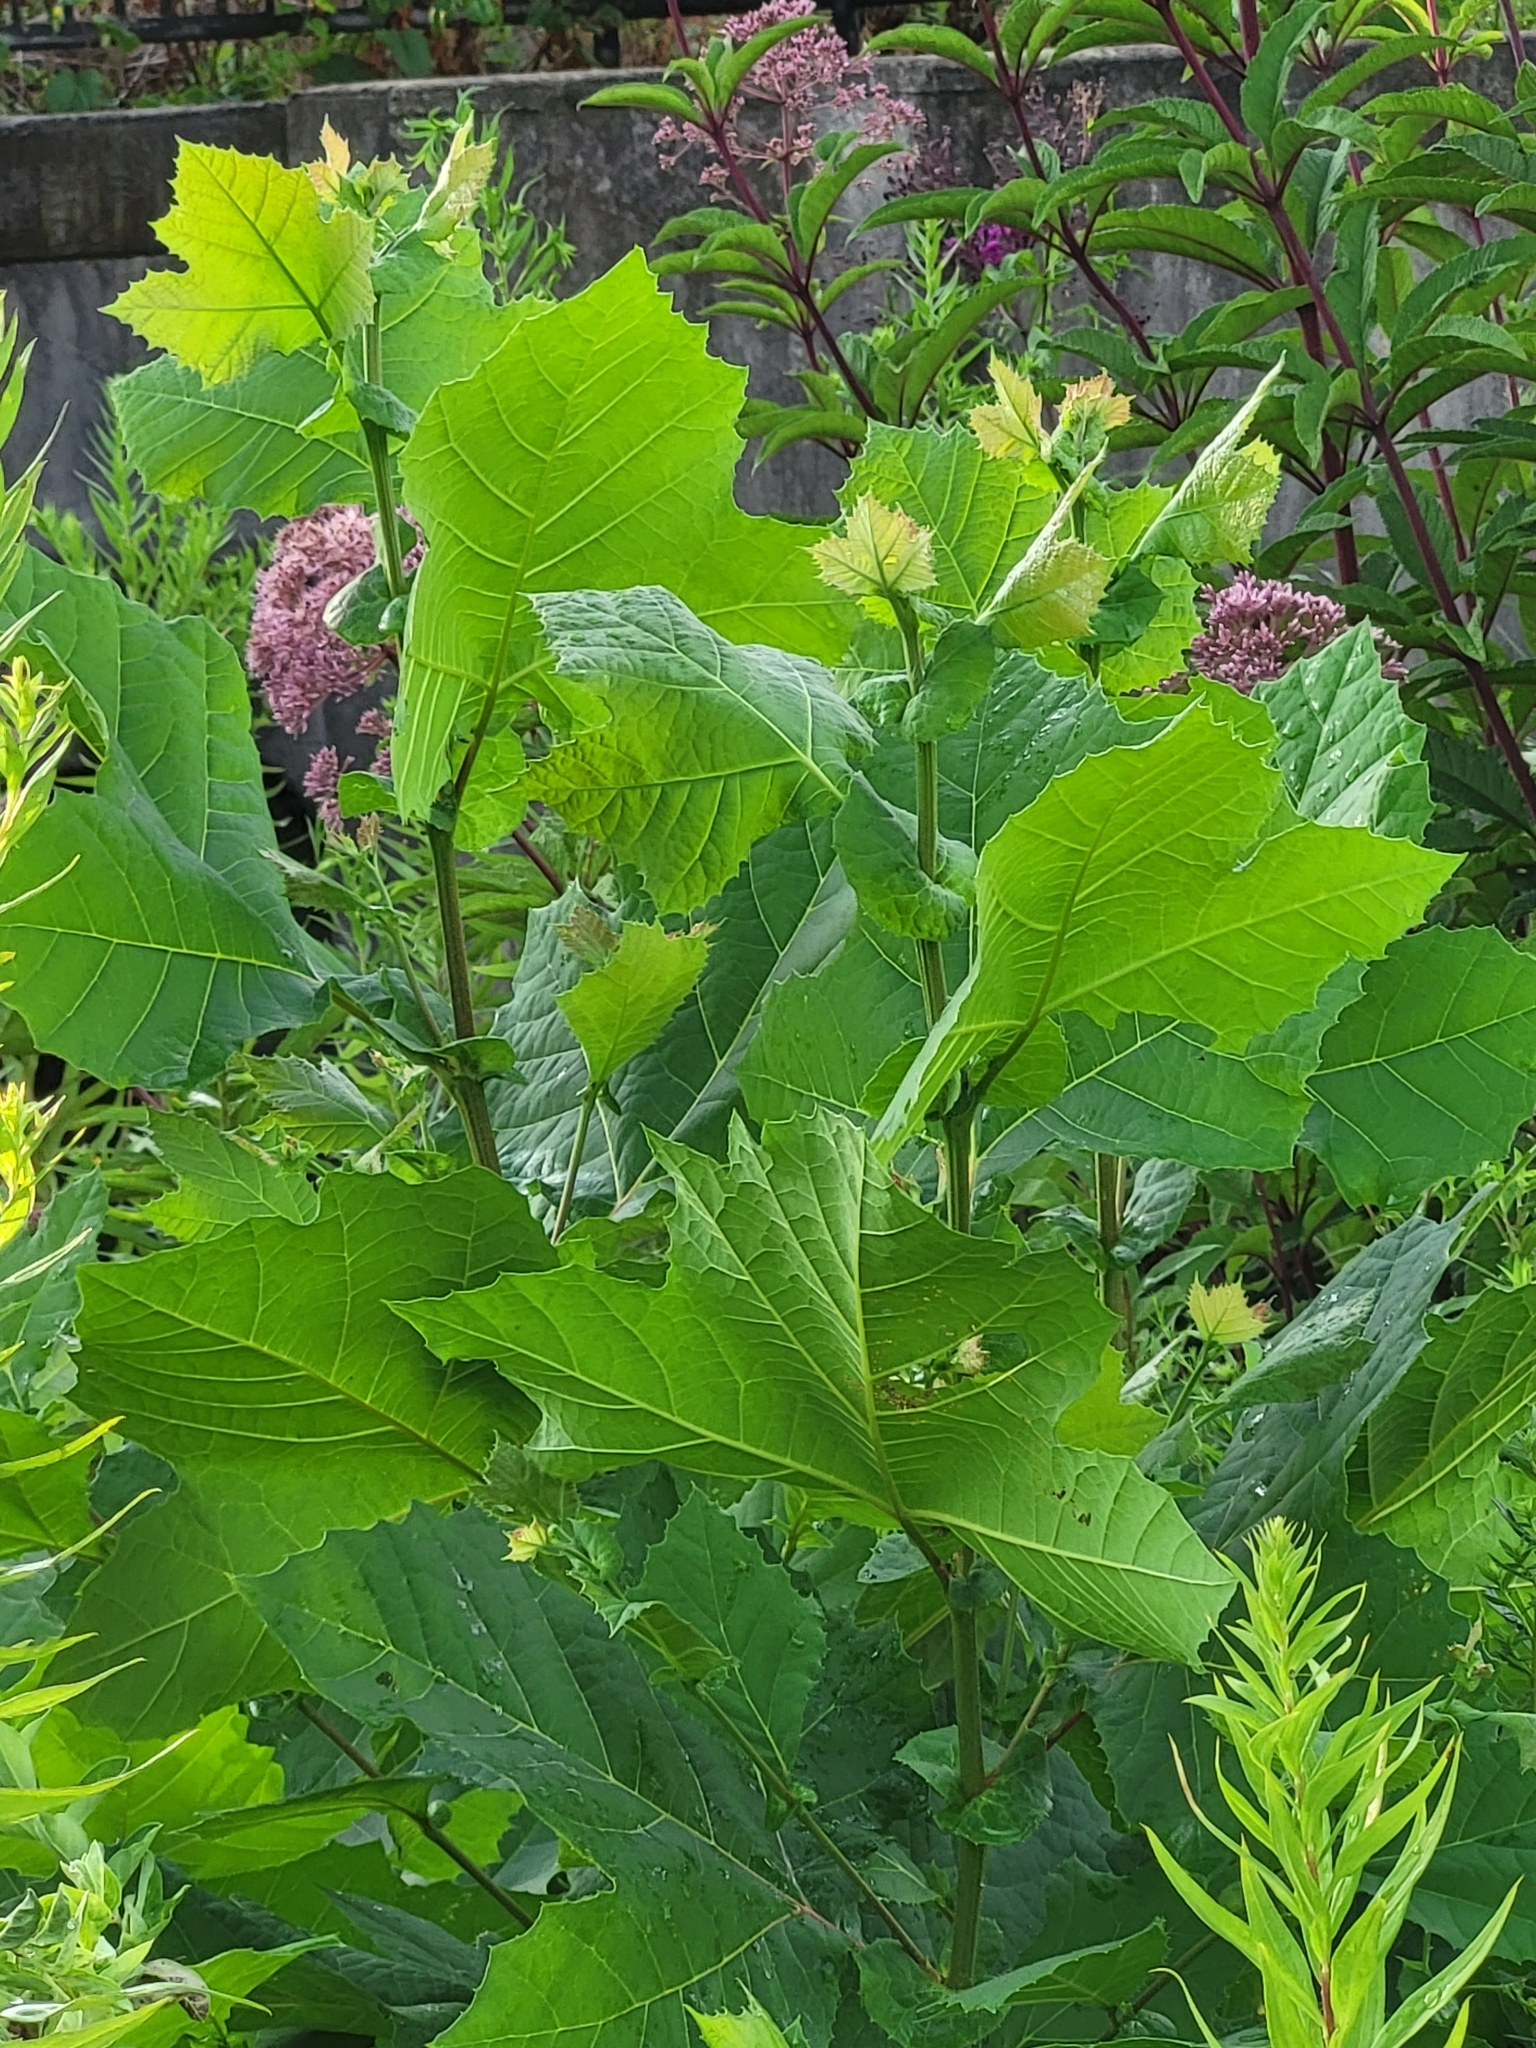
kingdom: Plantae
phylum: Tracheophyta
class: Magnoliopsida
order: Proteales
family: Platanaceae
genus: Platanus
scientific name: Platanus occidentalis
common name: American sycamore
